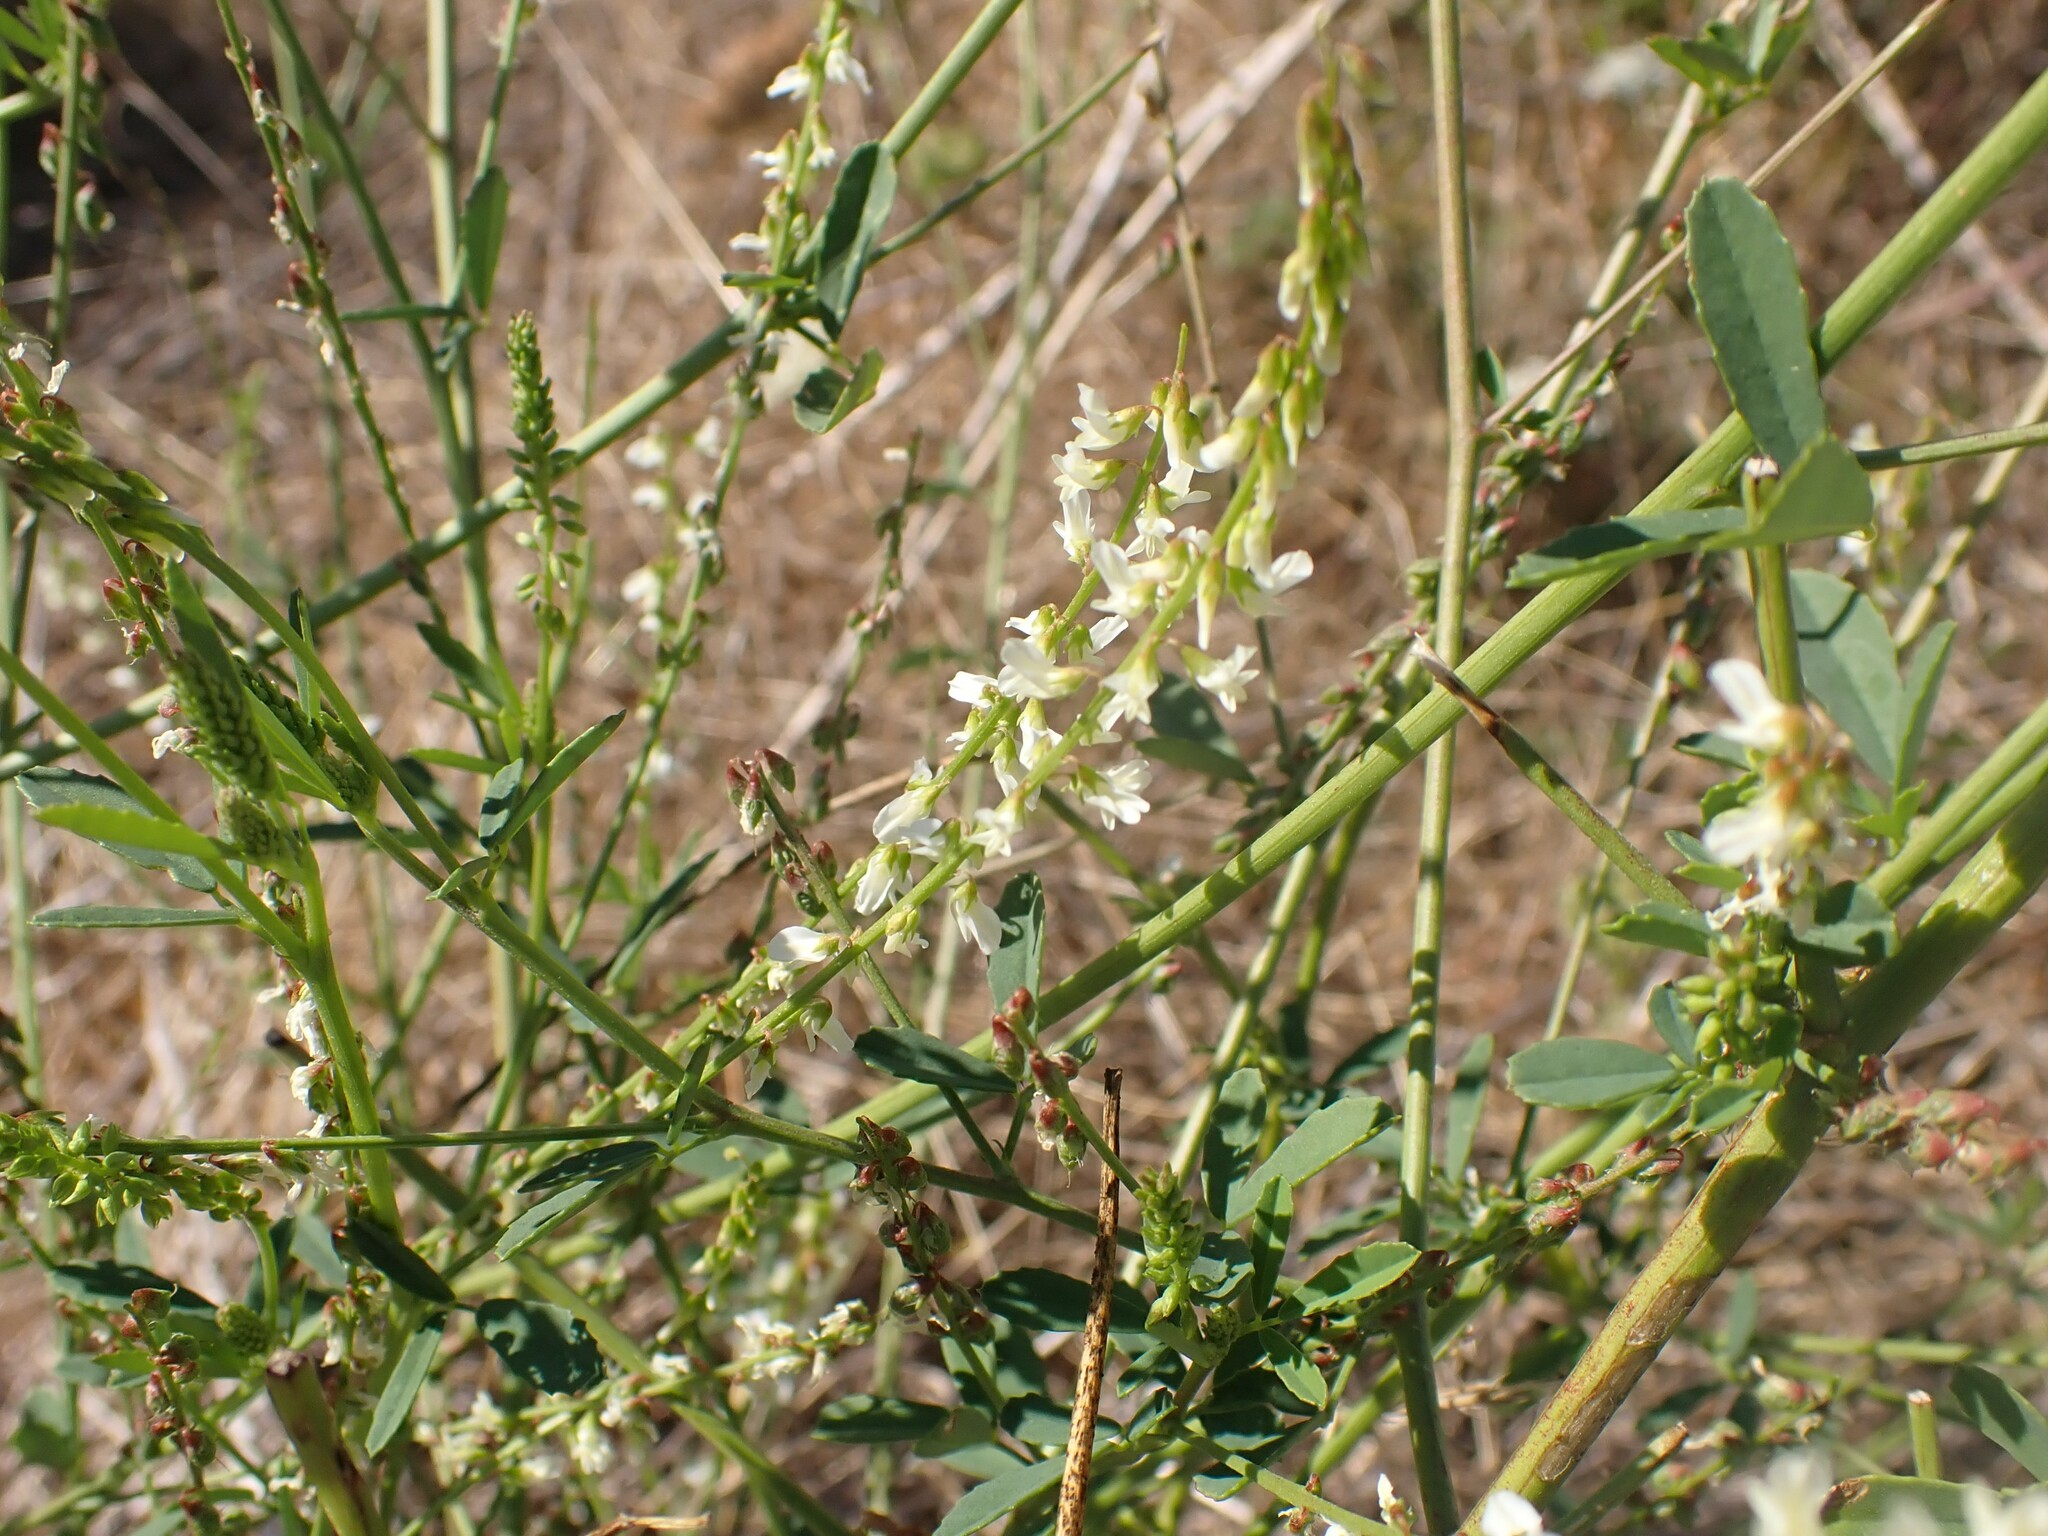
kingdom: Plantae
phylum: Tracheophyta
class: Magnoliopsida
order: Fabales
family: Fabaceae
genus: Melilotus
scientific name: Melilotus albus
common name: White melilot
